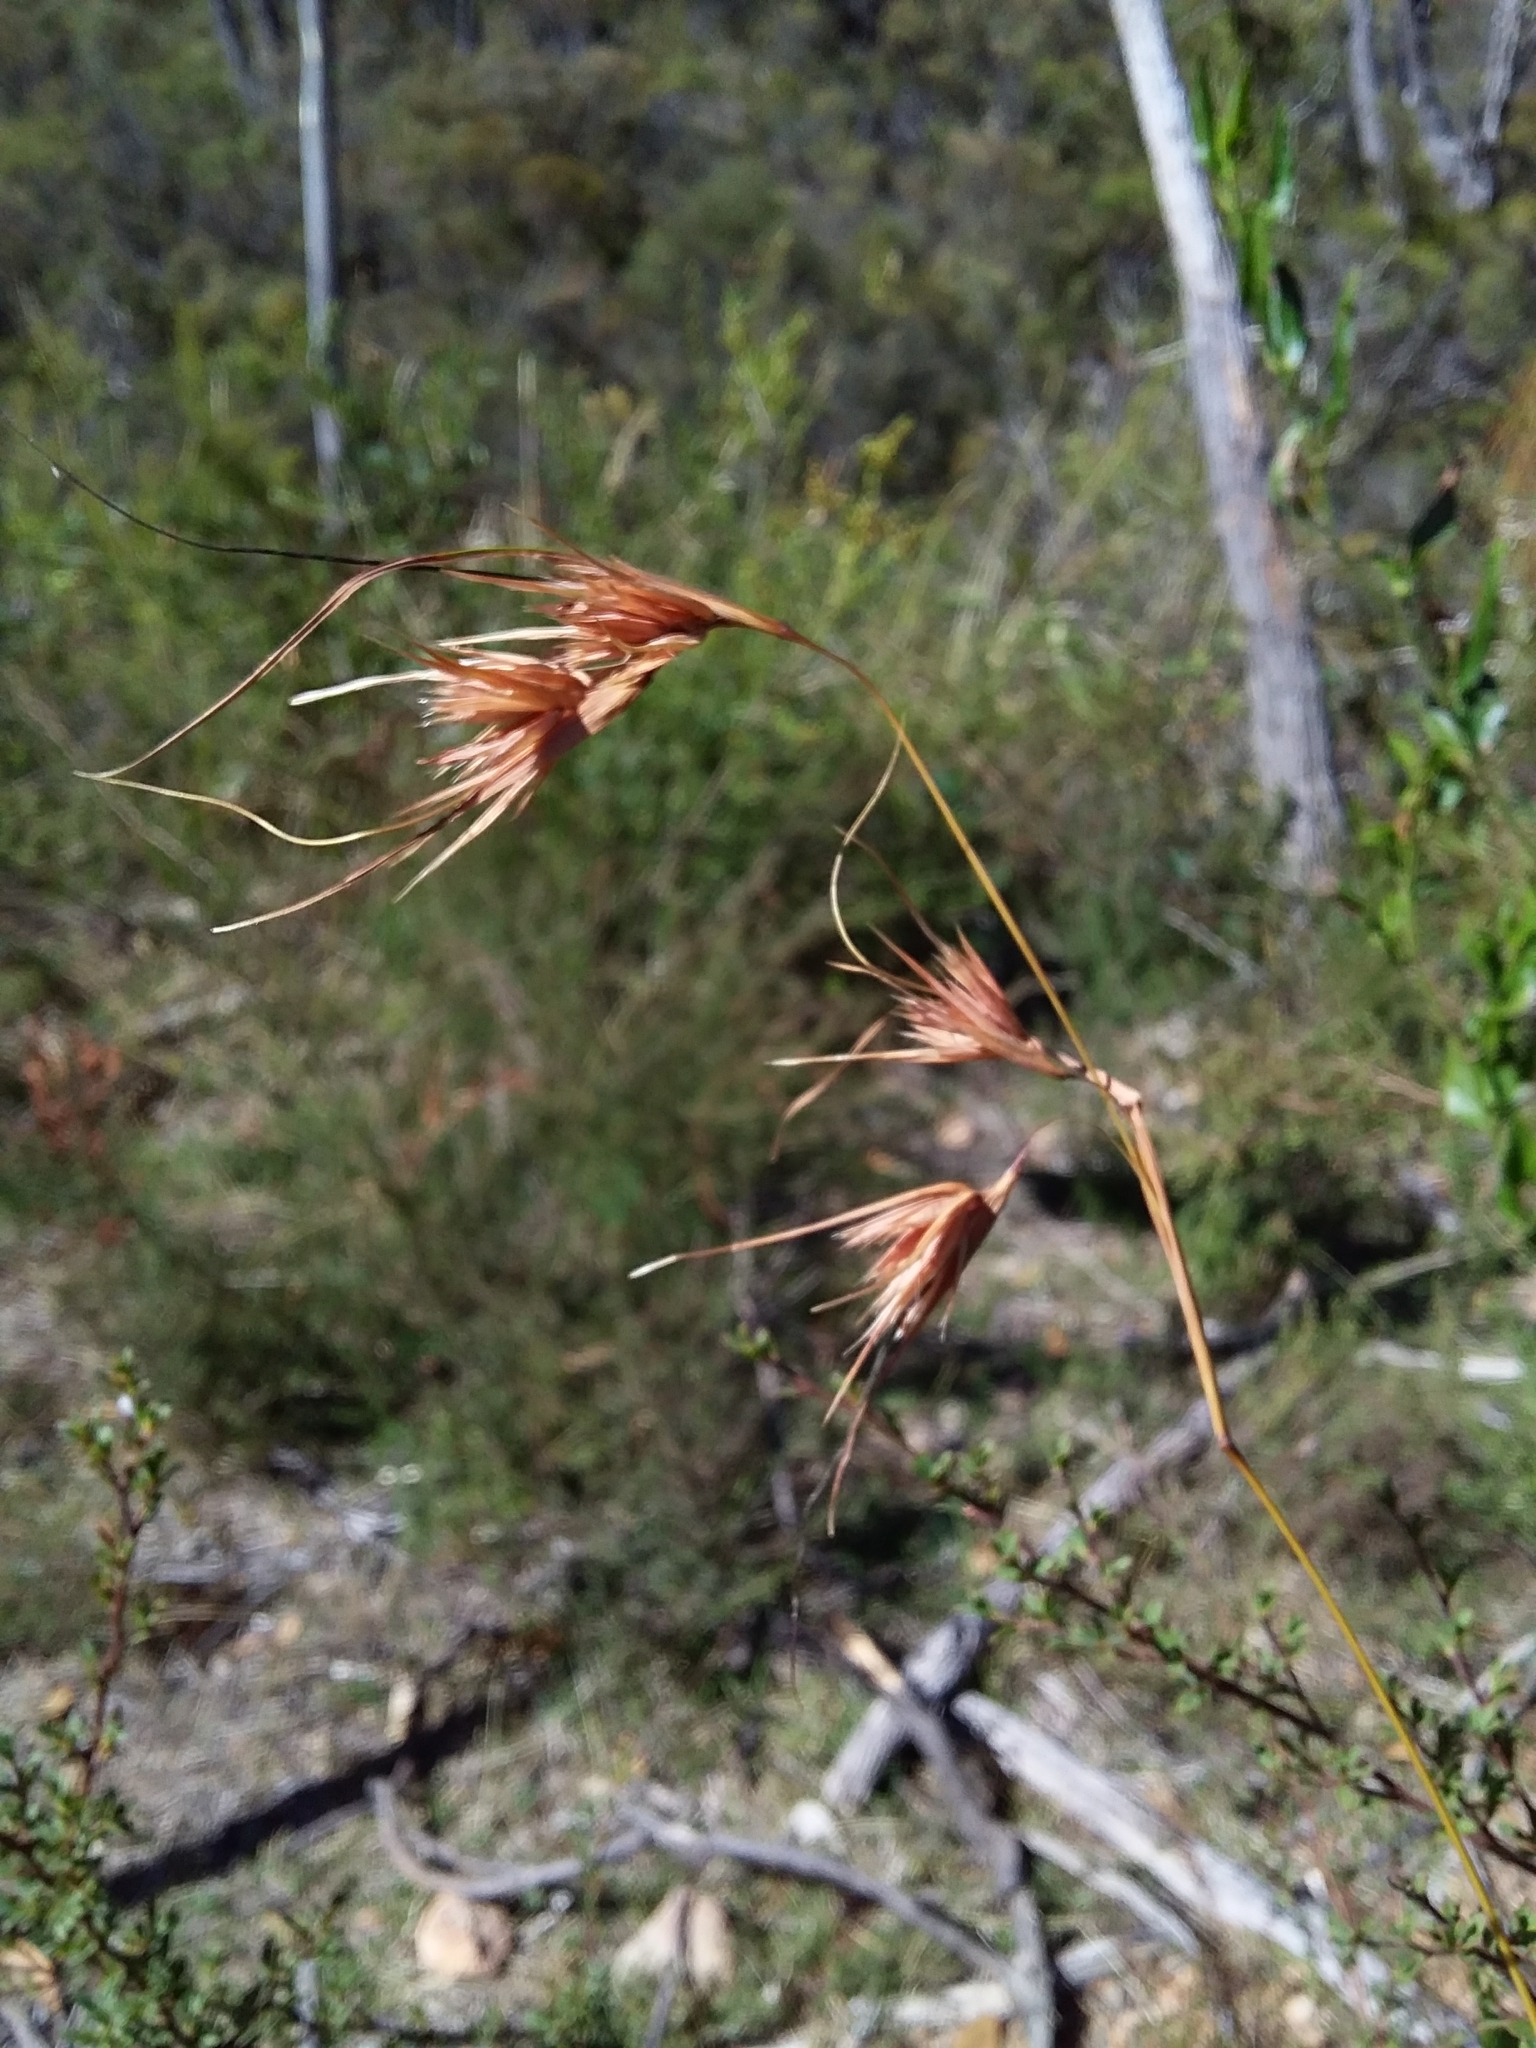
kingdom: Plantae
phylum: Tracheophyta
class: Liliopsida
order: Poales
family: Poaceae
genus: Themeda
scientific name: Themeda triandra
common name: Kangaroo grass
